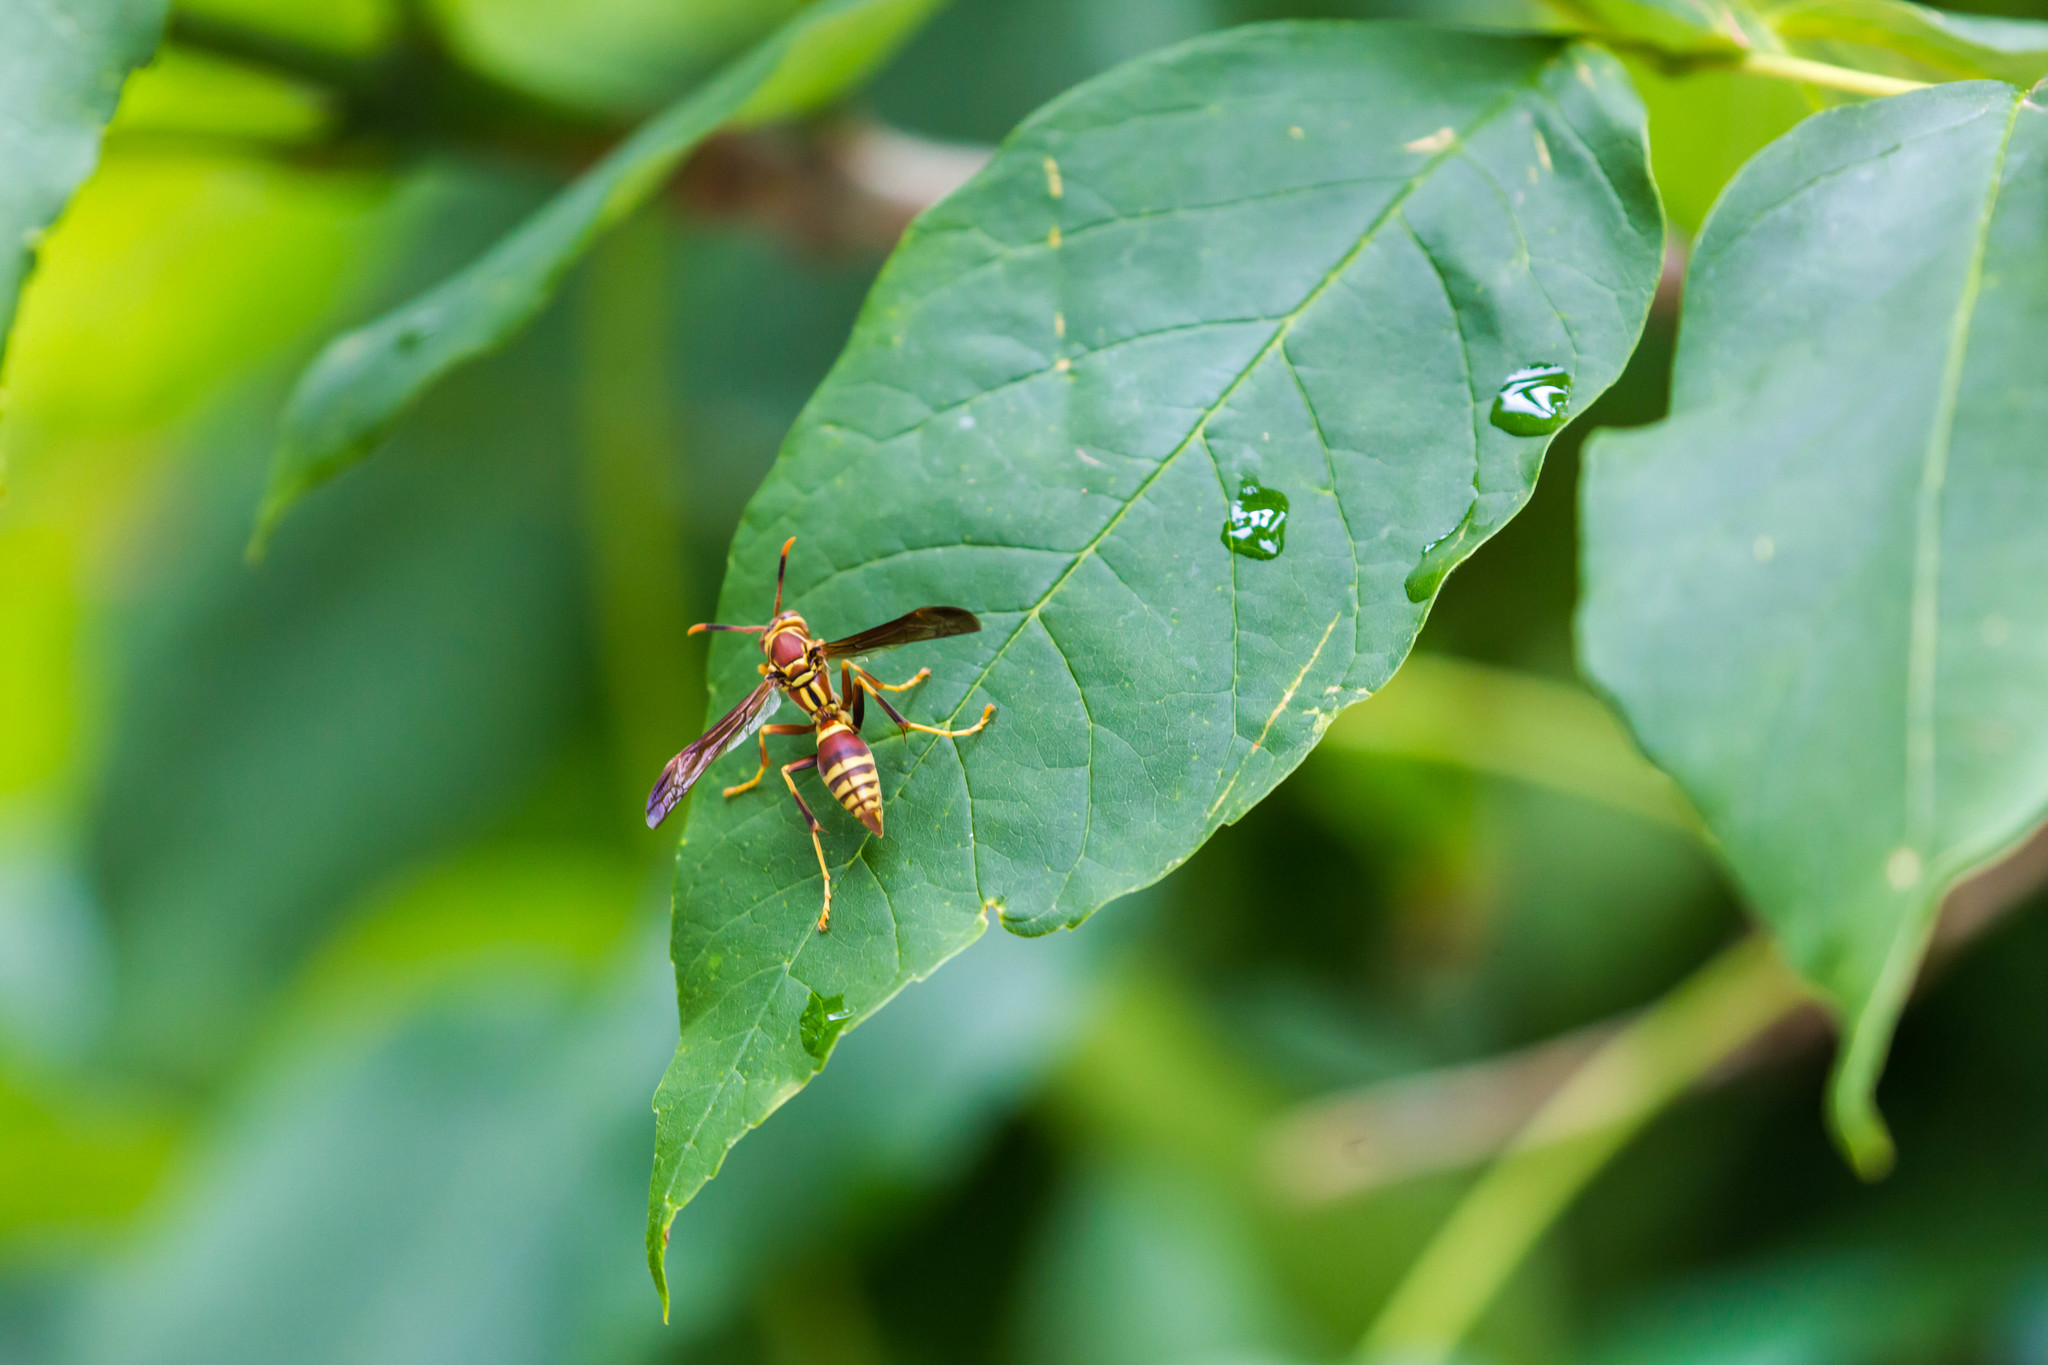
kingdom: Animalia
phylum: Arthropoda
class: Insecta
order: Hymenoptera
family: Eumenidae
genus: Polistes
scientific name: Polistes exclamans
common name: Paper wasp
